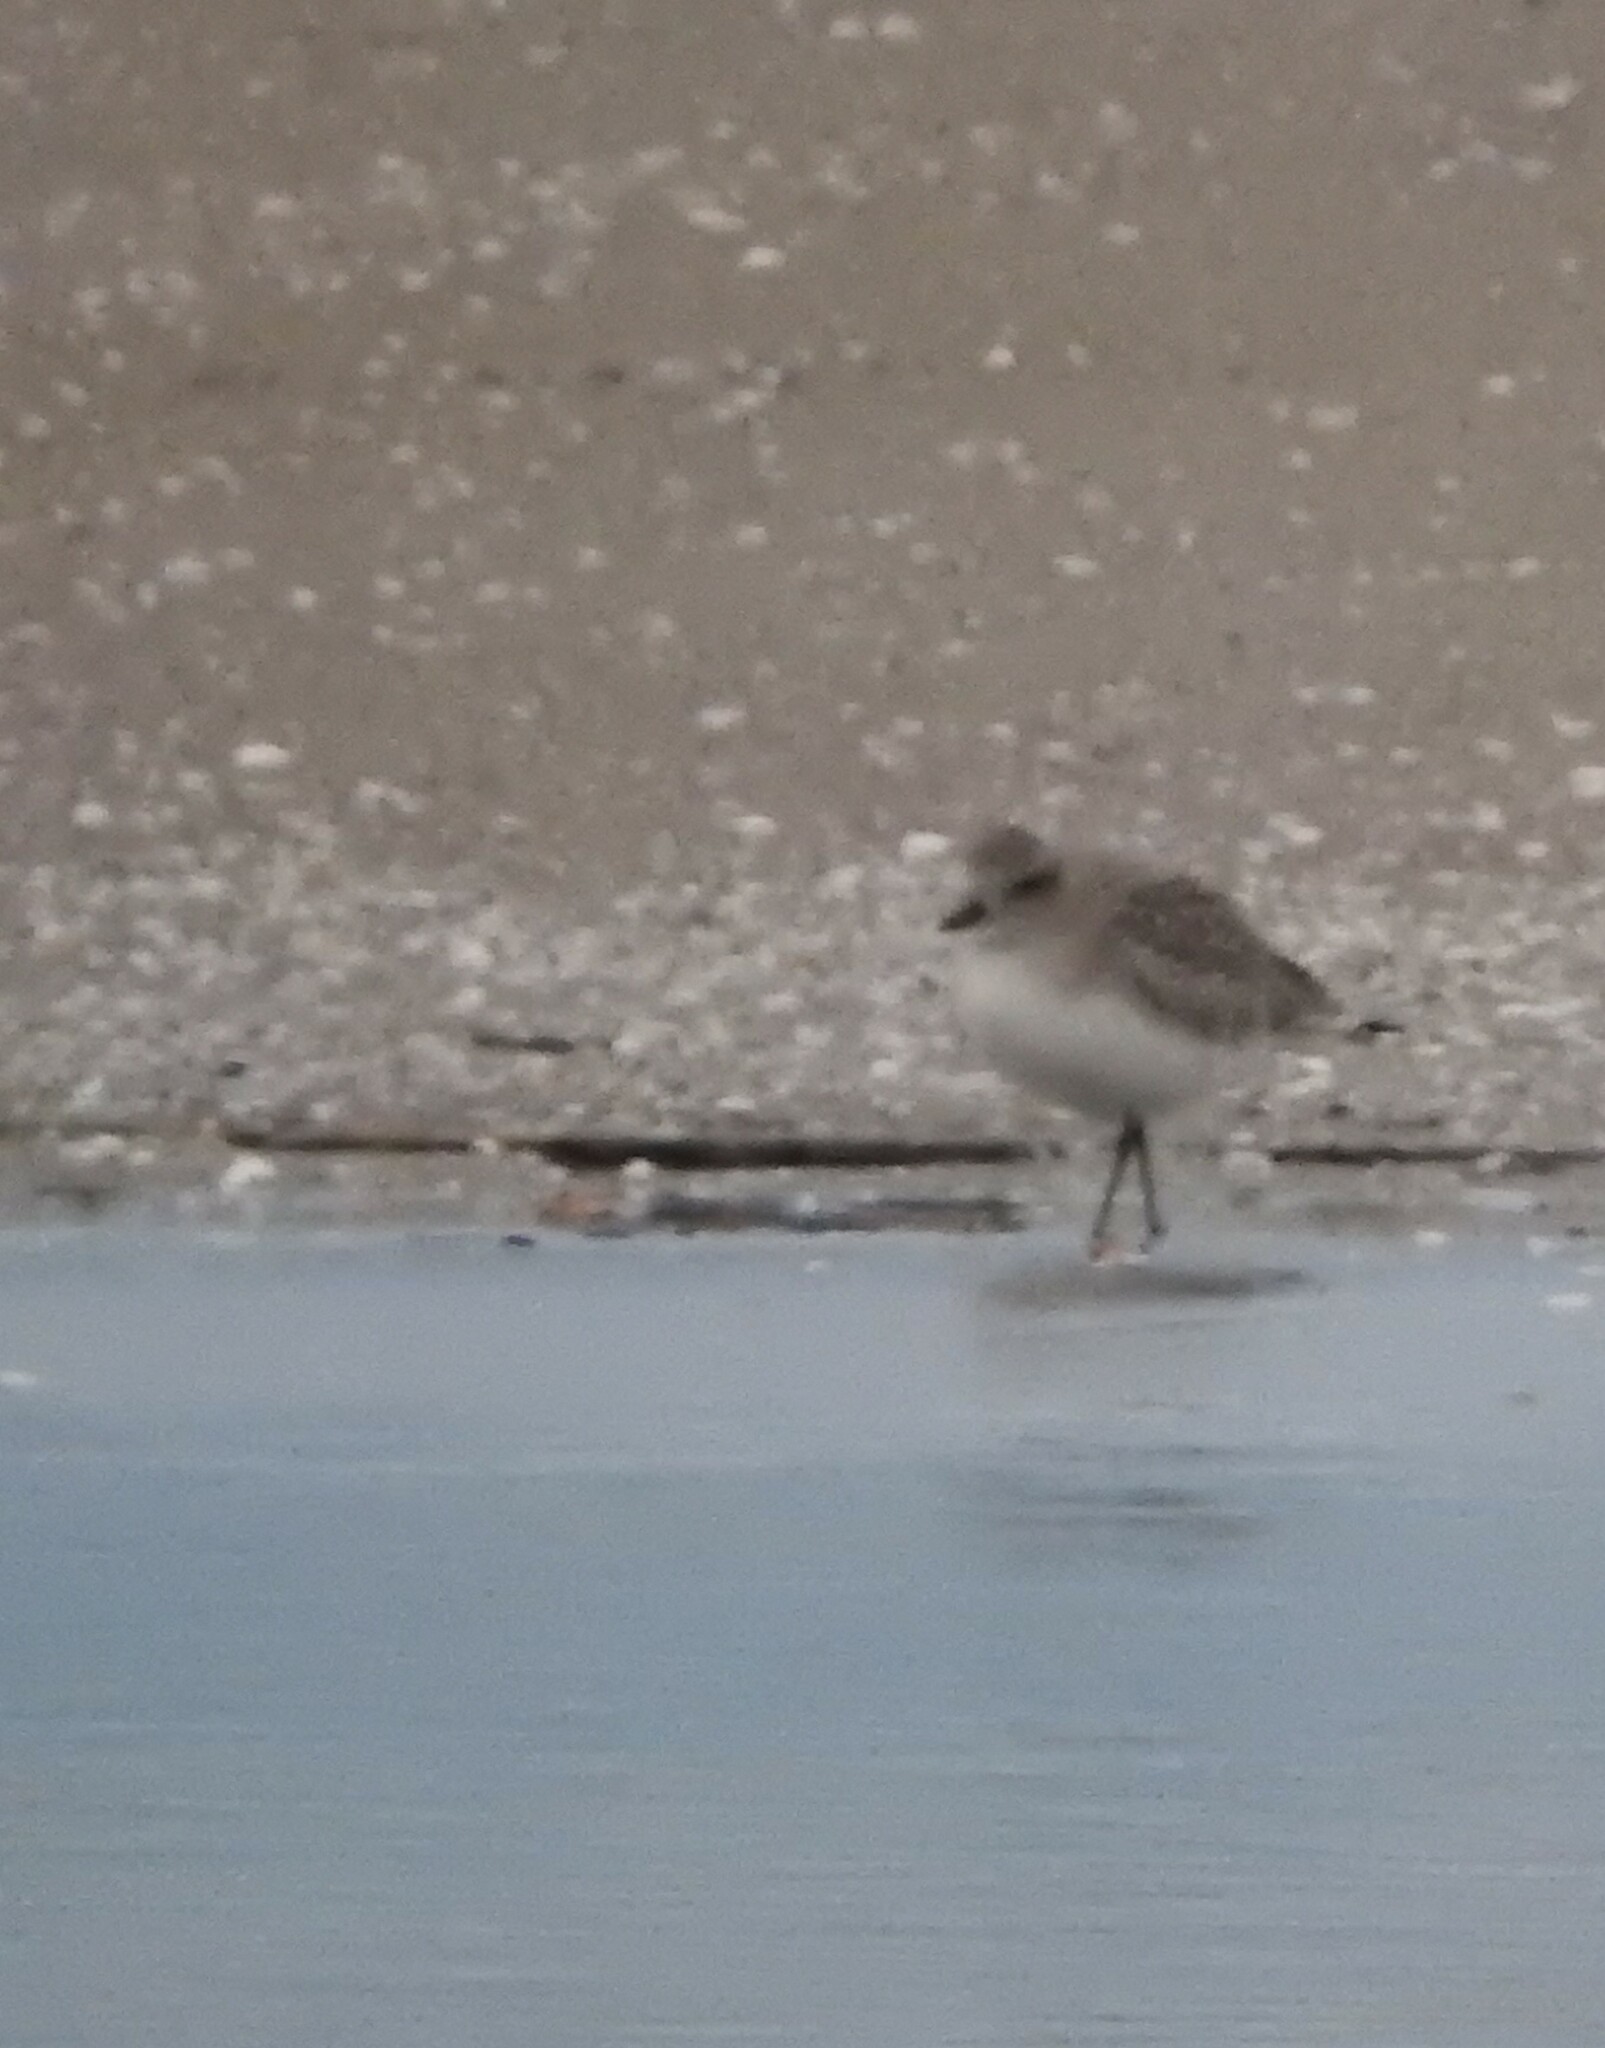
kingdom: Animalia
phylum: Chordata
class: Aves
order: Charadriiformes
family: Charadriidae
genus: Pluvialis
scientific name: Pluvialis squatarola
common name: Grey plover
